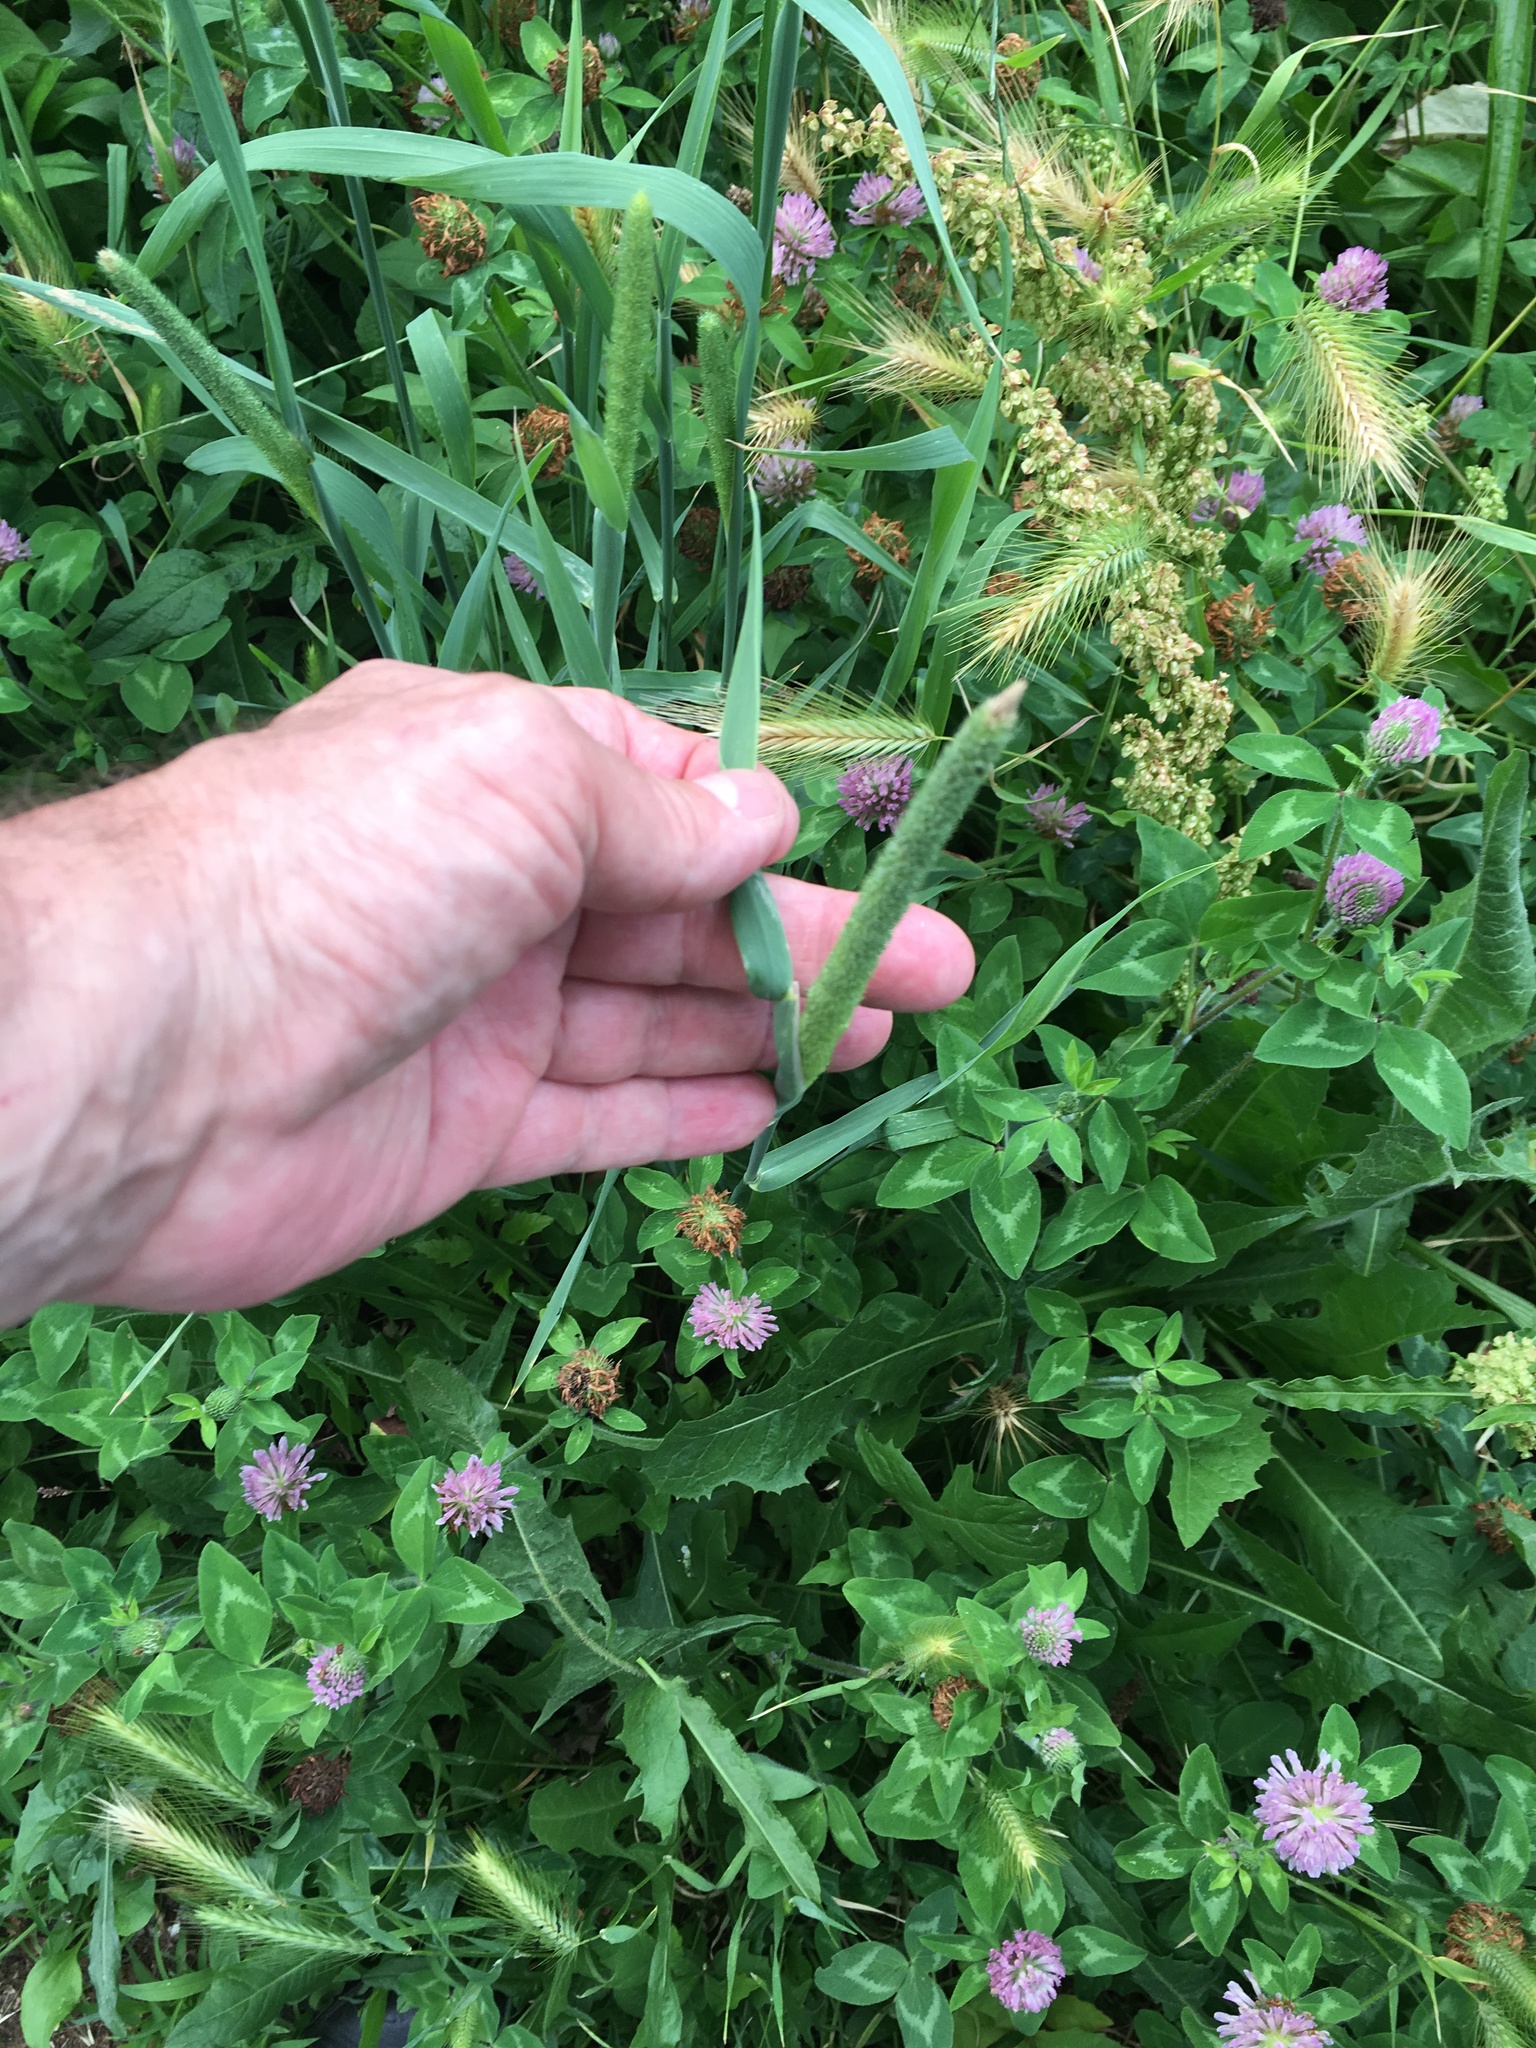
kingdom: Plantae
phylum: Tracheophyta
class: Liliopsida
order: Poales
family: Poaceae
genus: Phleum
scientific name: Phleum pratense
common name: Timothy grass
